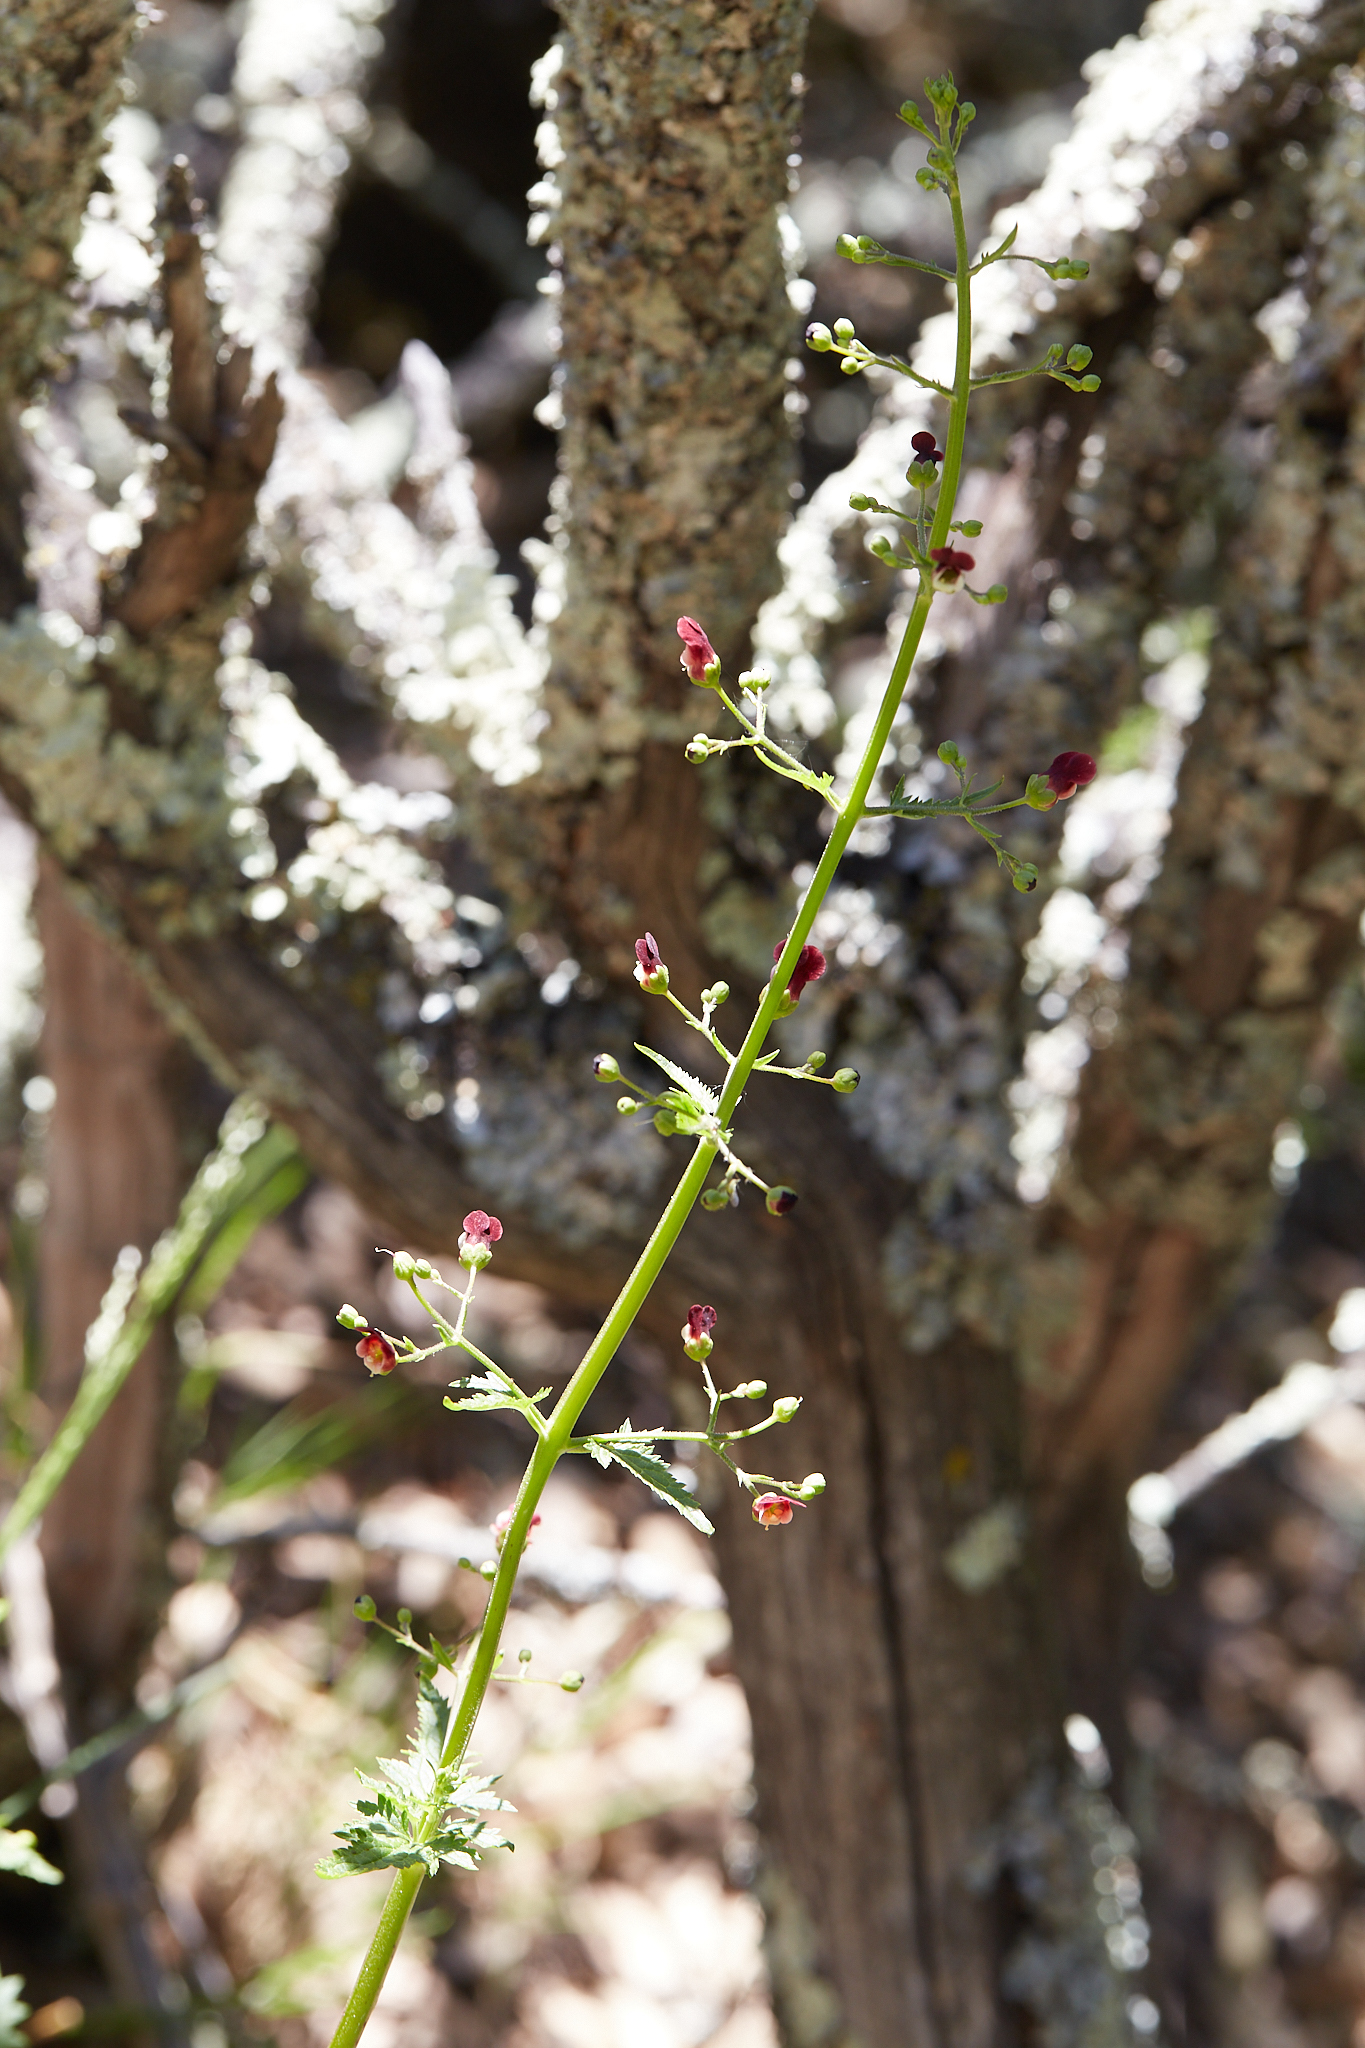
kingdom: Plantae
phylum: Tracheophyta
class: Magnoliopsida
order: Lamiales
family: Scrophulariaceae
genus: Scrophularia
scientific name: Scrophularia californica
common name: California figwort
